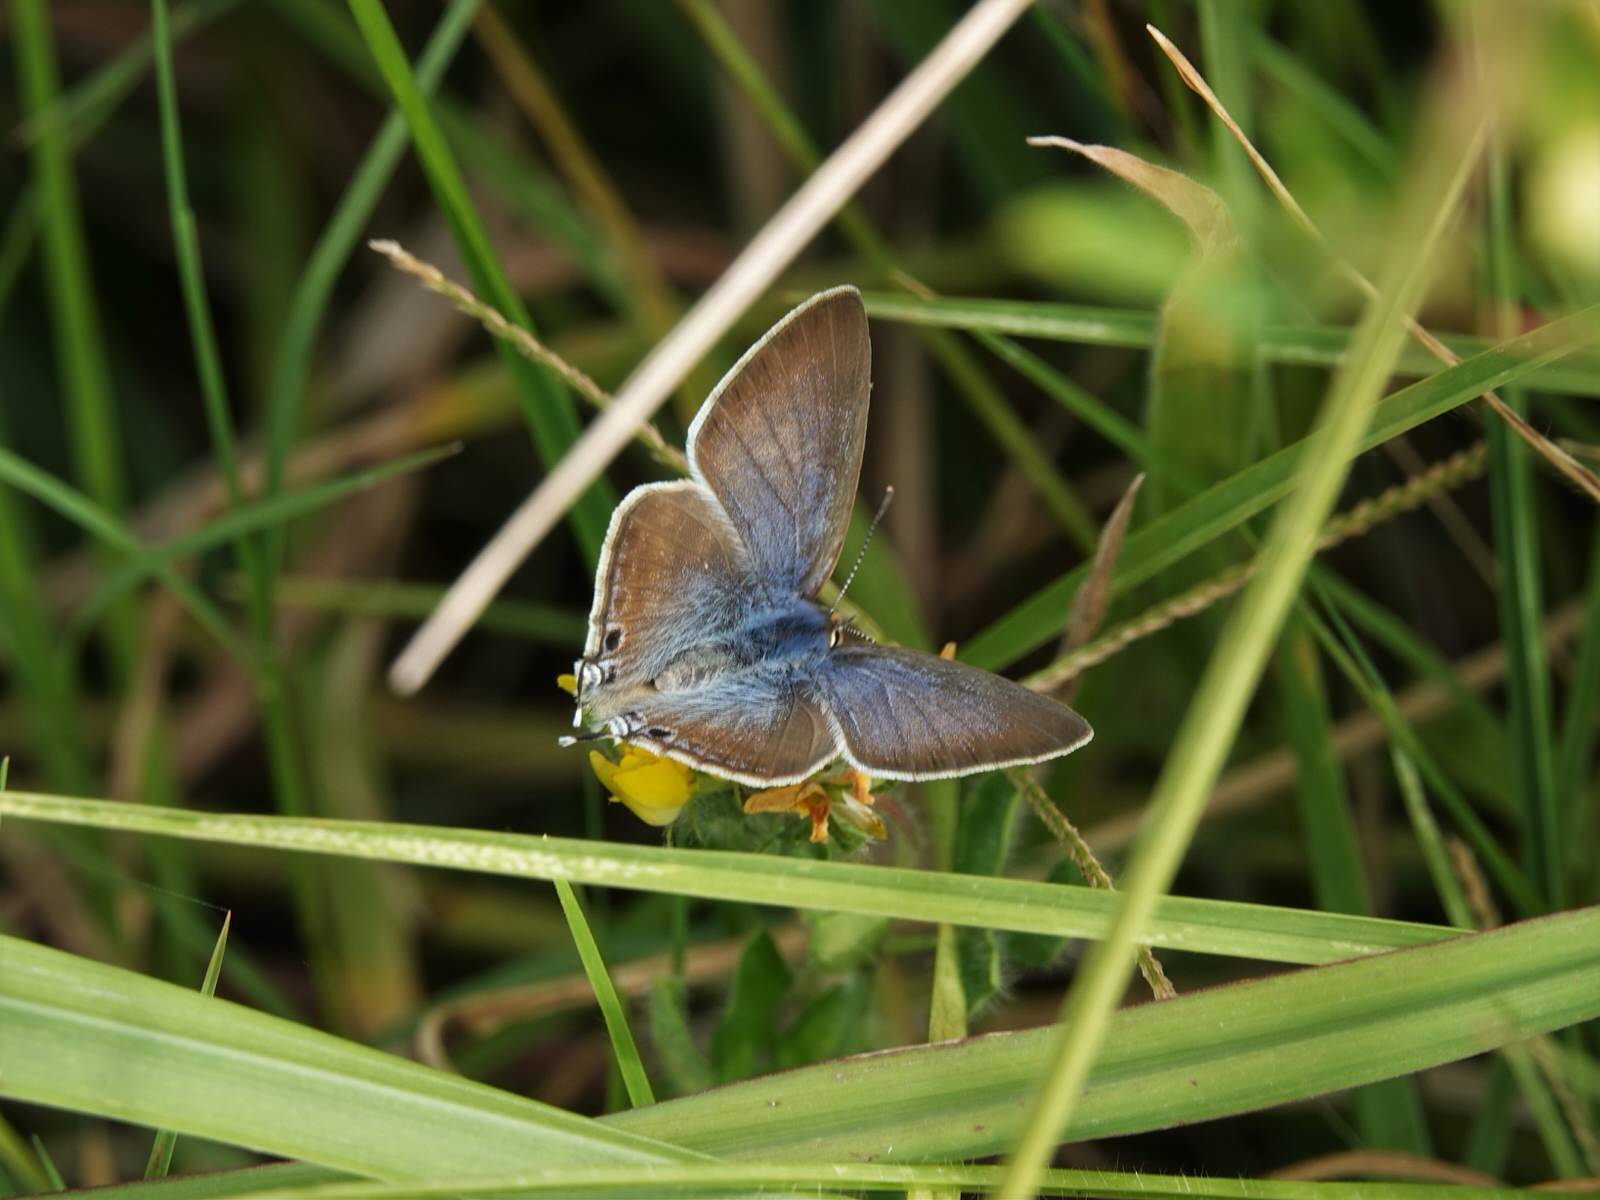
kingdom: Animalia
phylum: Arthropoda
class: Insecta
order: Lepidoptera
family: Lycaenidae
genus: Lampides
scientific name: Lampides boeticus
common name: Long-tailed blue
